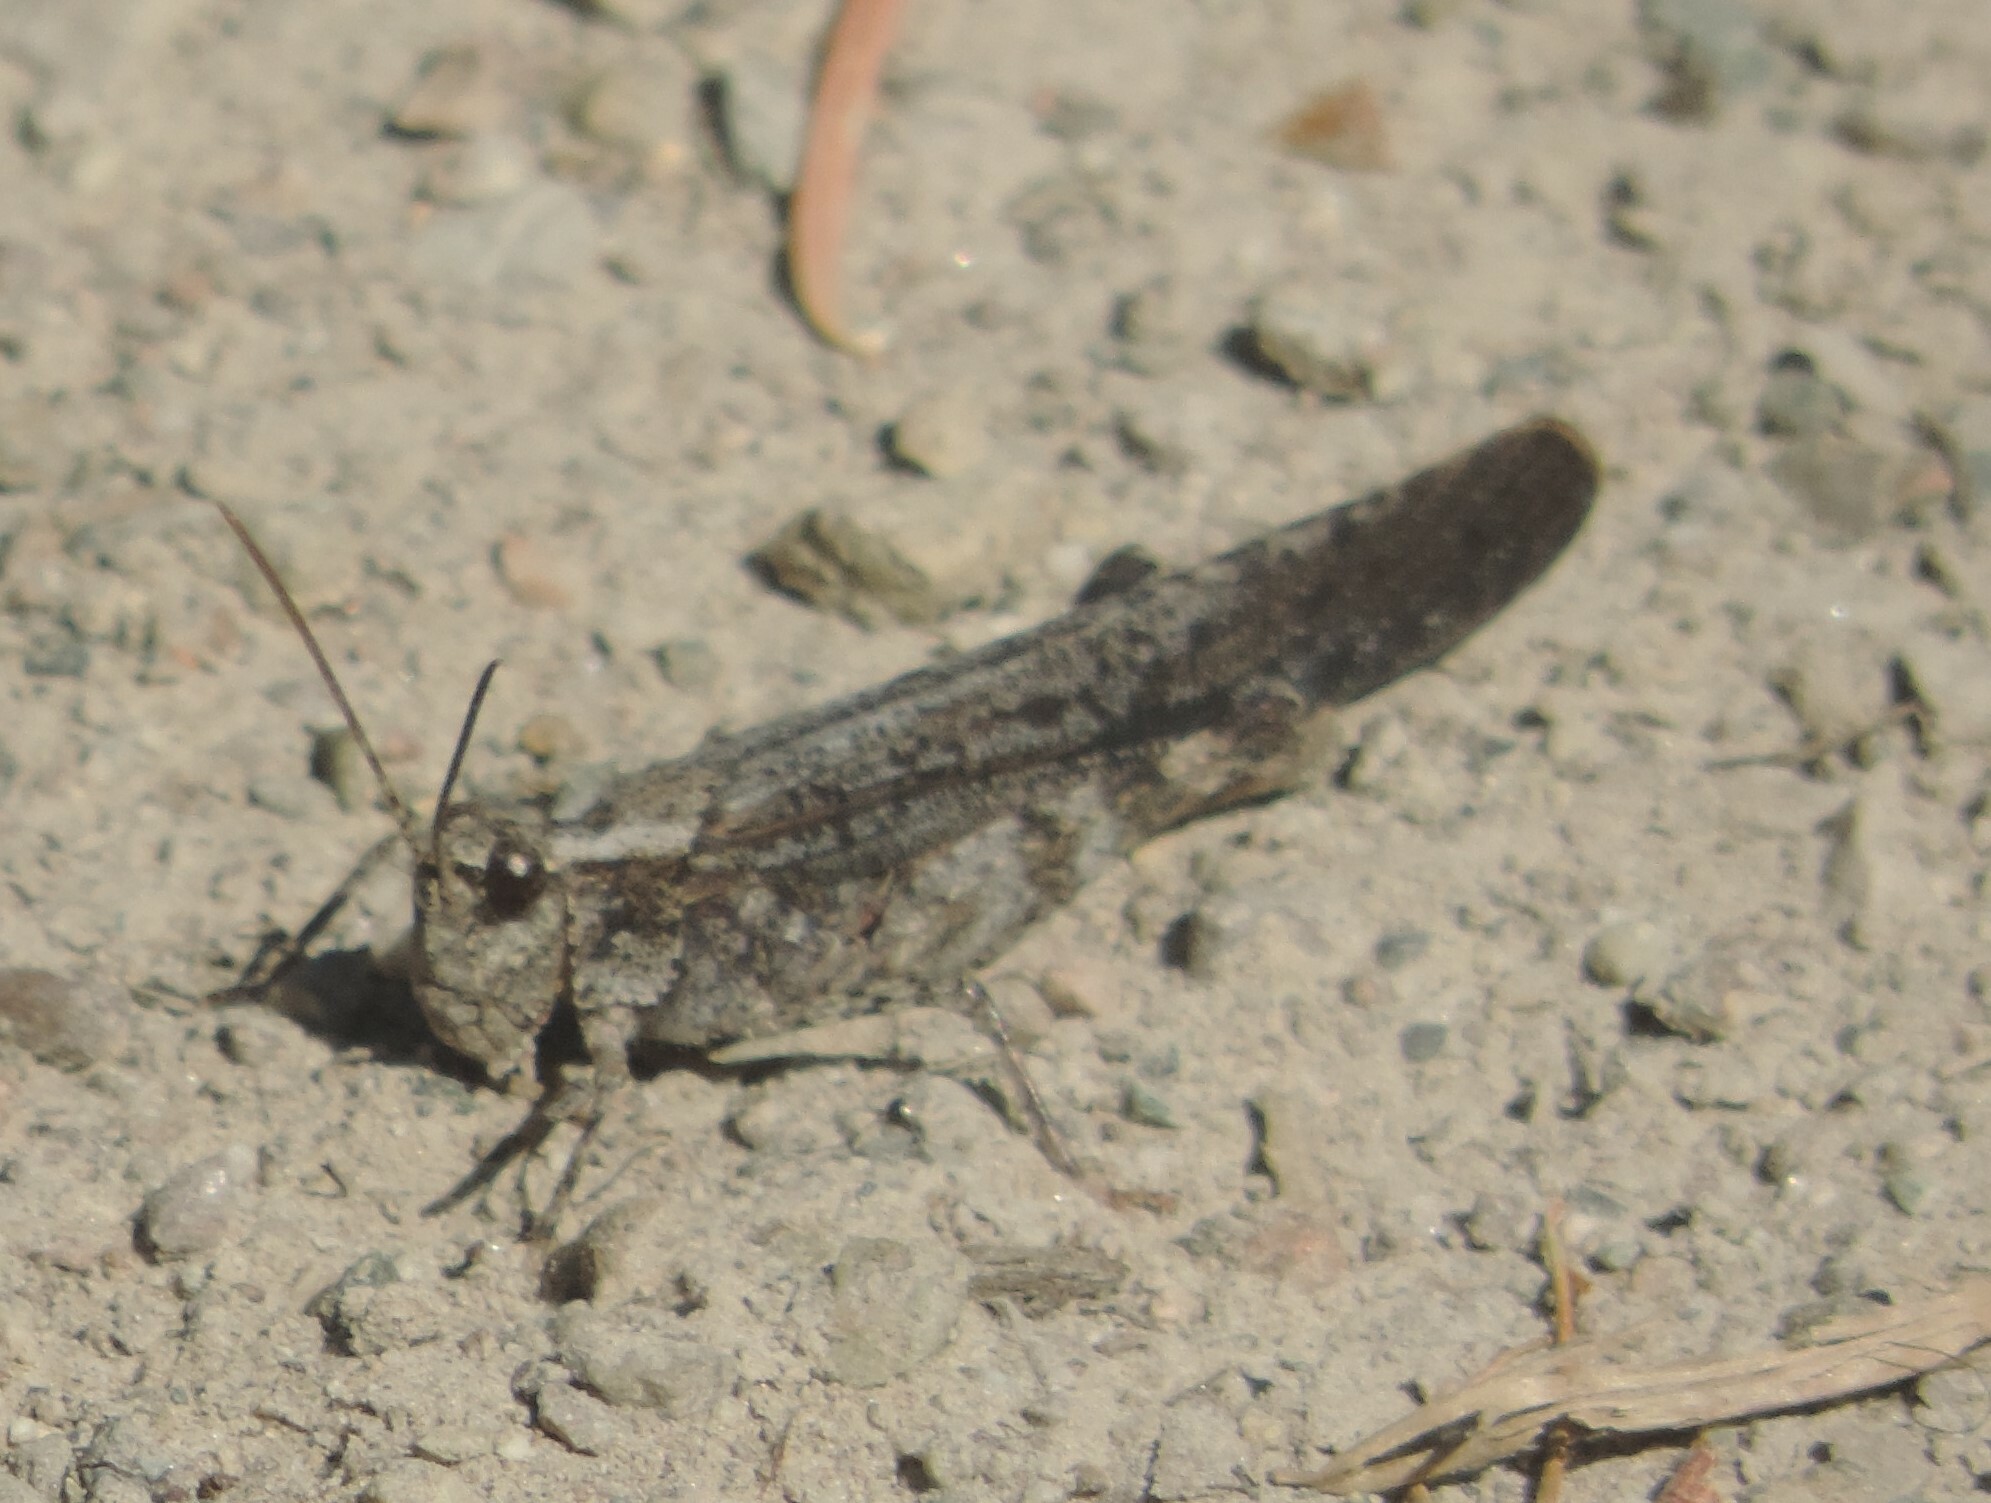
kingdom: Animalia
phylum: Arthropoda
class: Insecta
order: Orthoptera
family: Acrididae
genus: Trimerotropis
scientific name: Trimerotropis verruculata
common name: Crackling forest grasshopper
